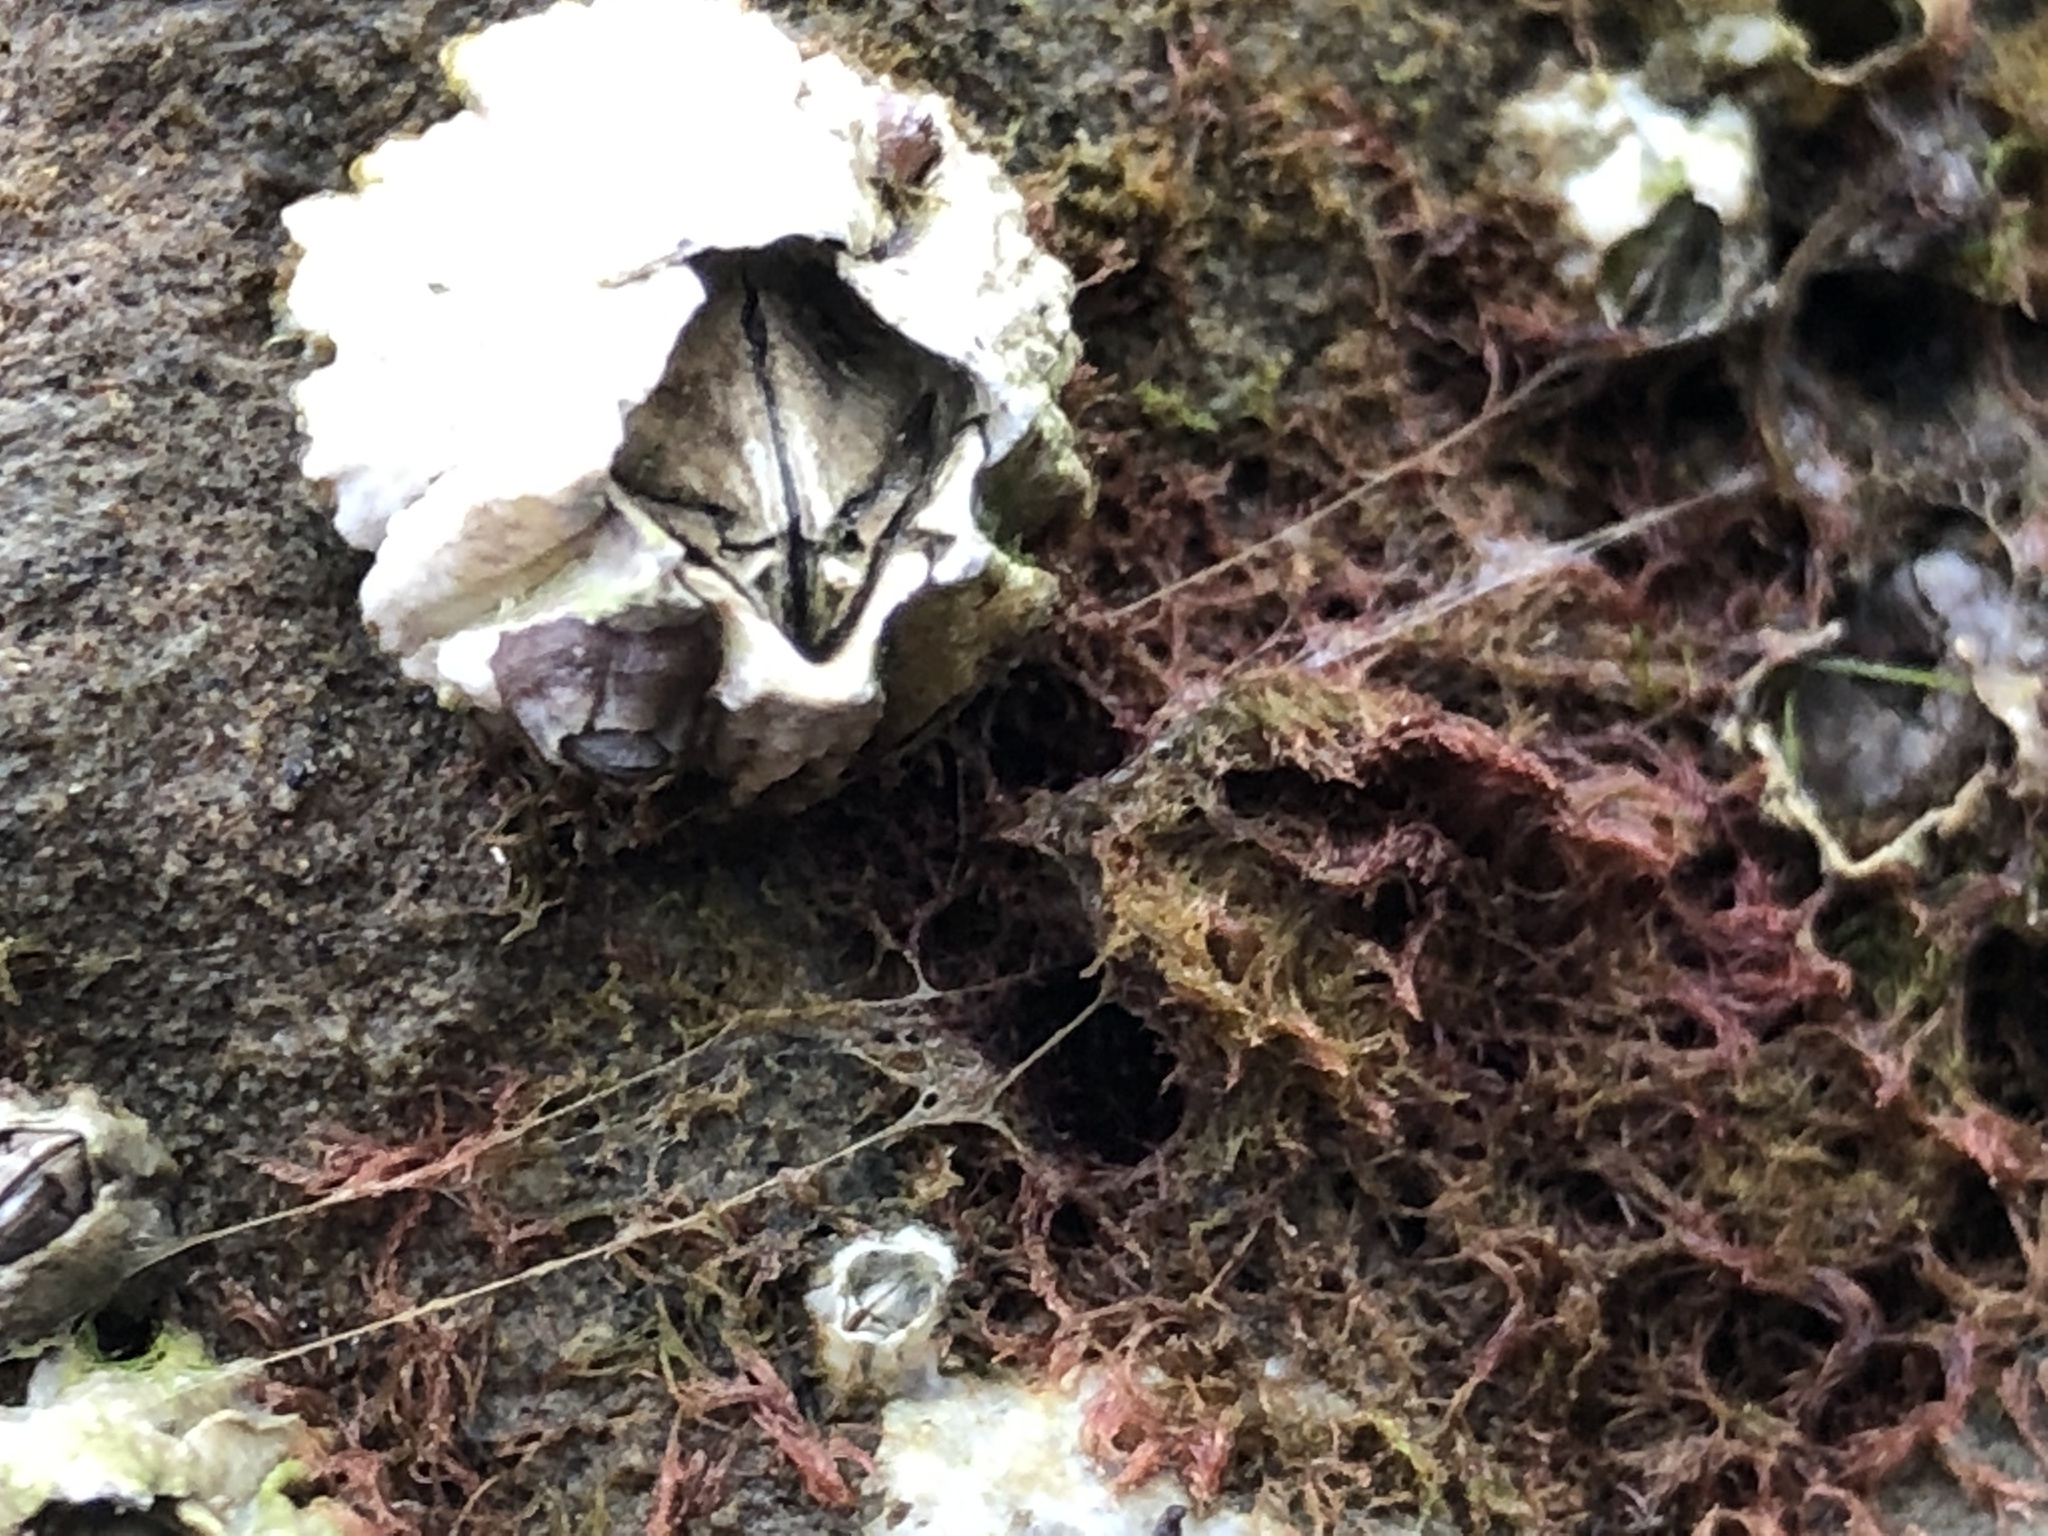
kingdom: Animalia
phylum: Arthropoda
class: Maxillopoda
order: Sessilia
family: Balanidae
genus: Balanus
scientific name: Balanus glandula
